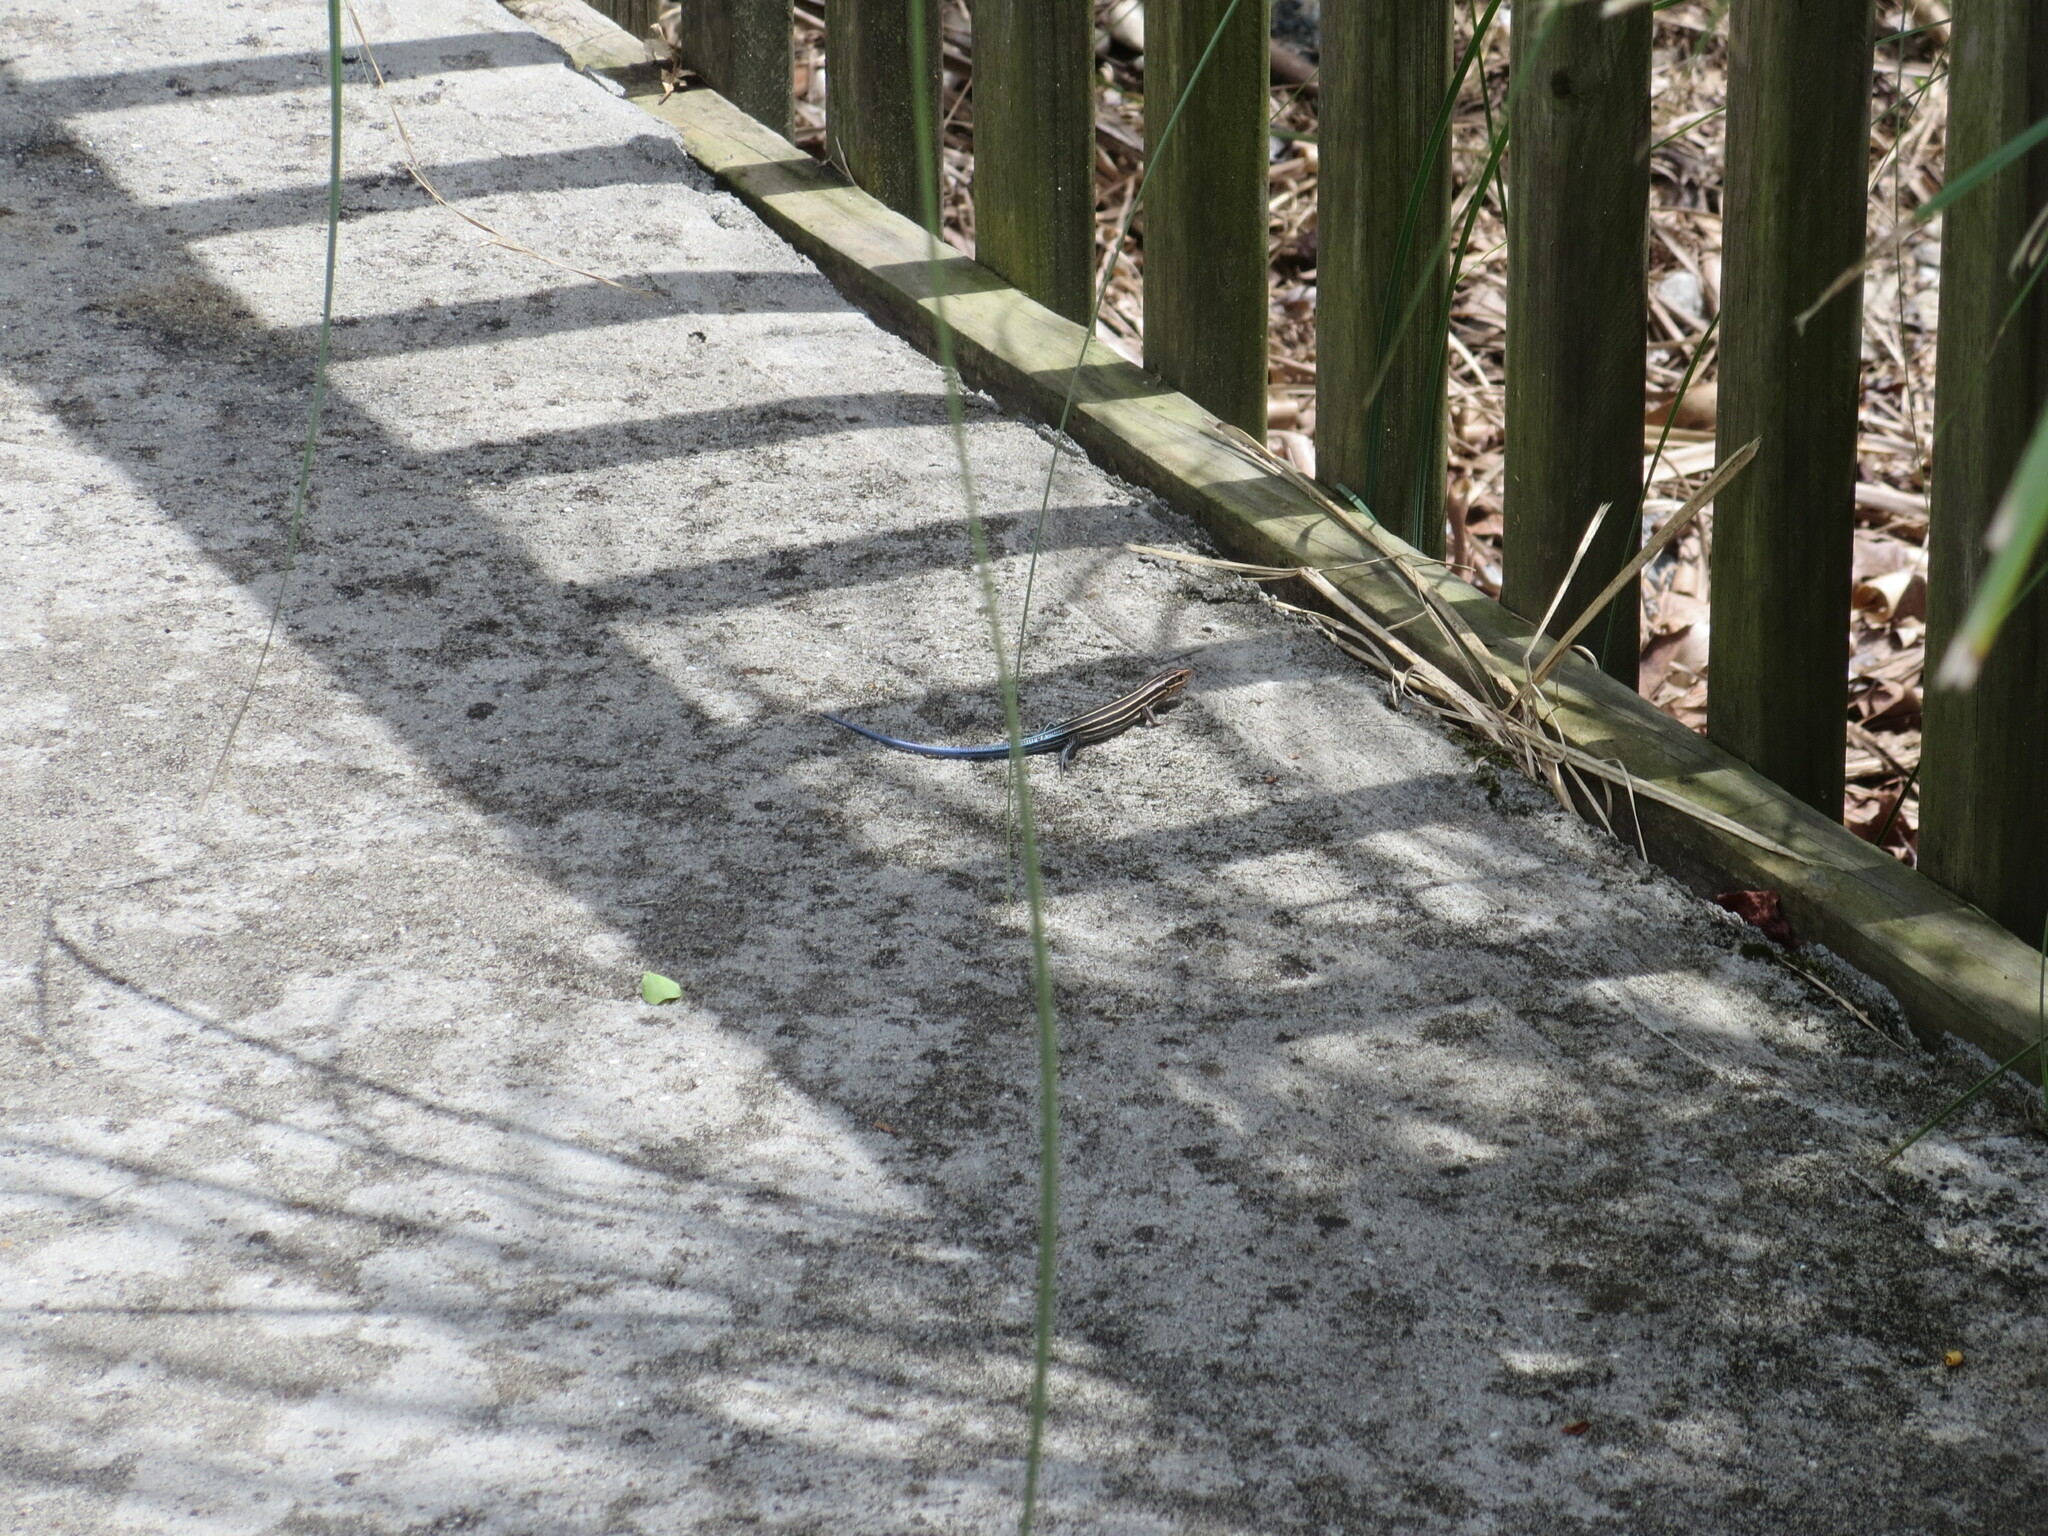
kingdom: Animalia
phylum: Chordata
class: Squamata
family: Scincidae
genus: Plestiodon
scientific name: Plestiodon laticeps
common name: Broadhead skink
